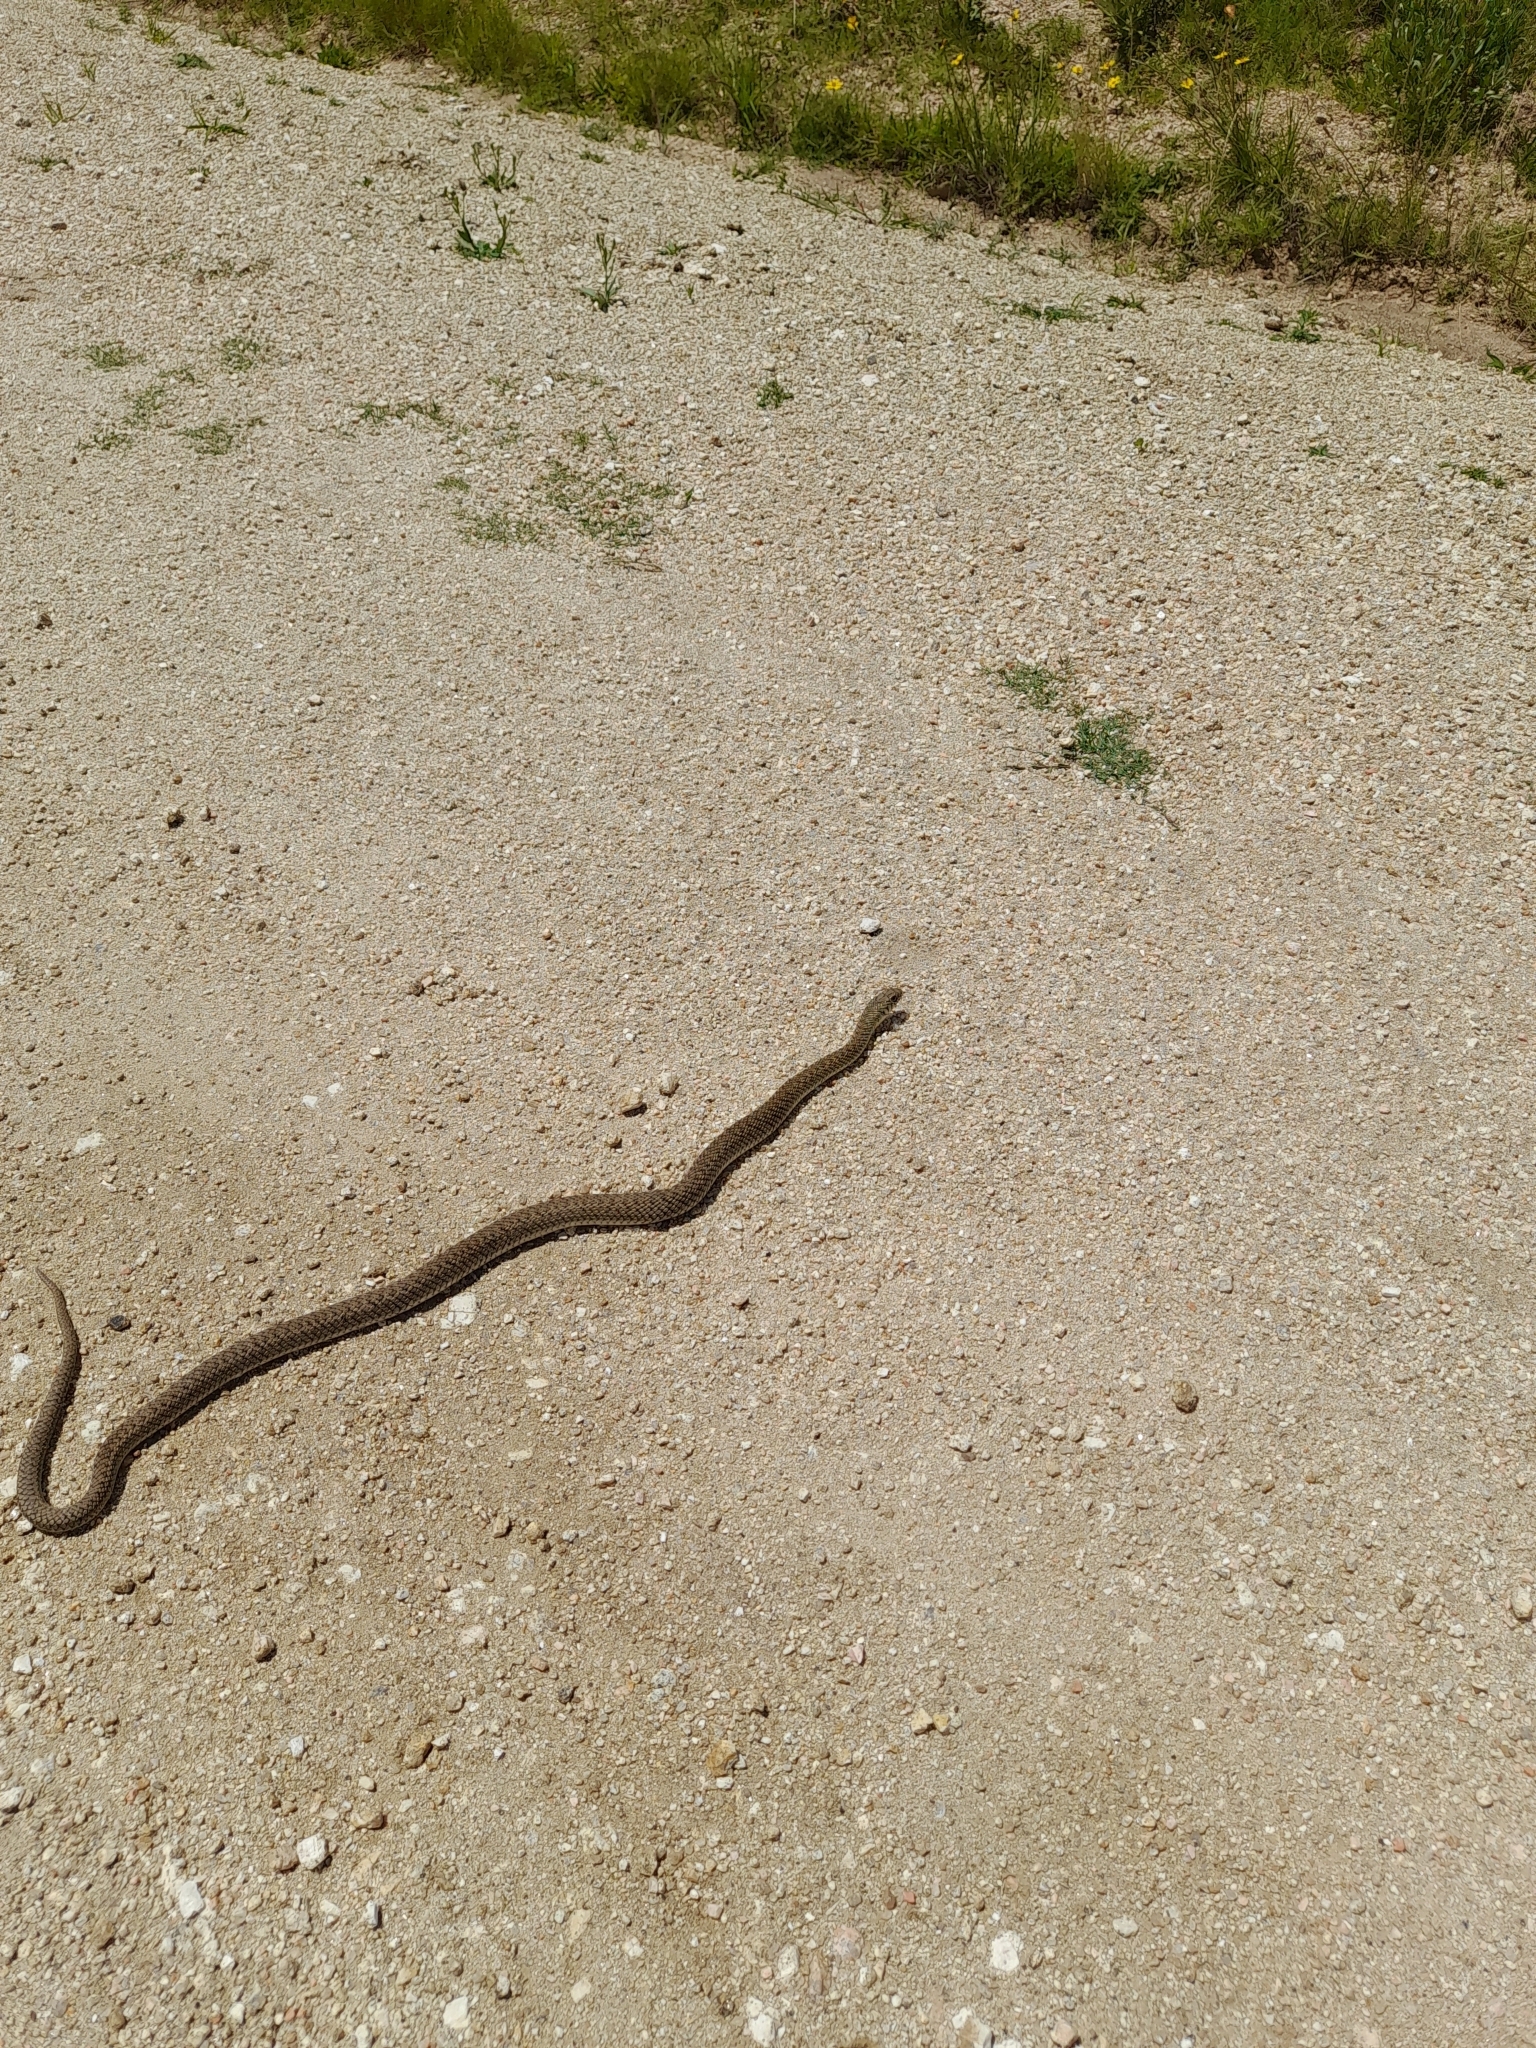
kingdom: Animalia
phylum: Chordata
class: Squamata
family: Colubridae
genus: Philodryas
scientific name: Philodryas patagoniensis
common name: Patagonia green racer
